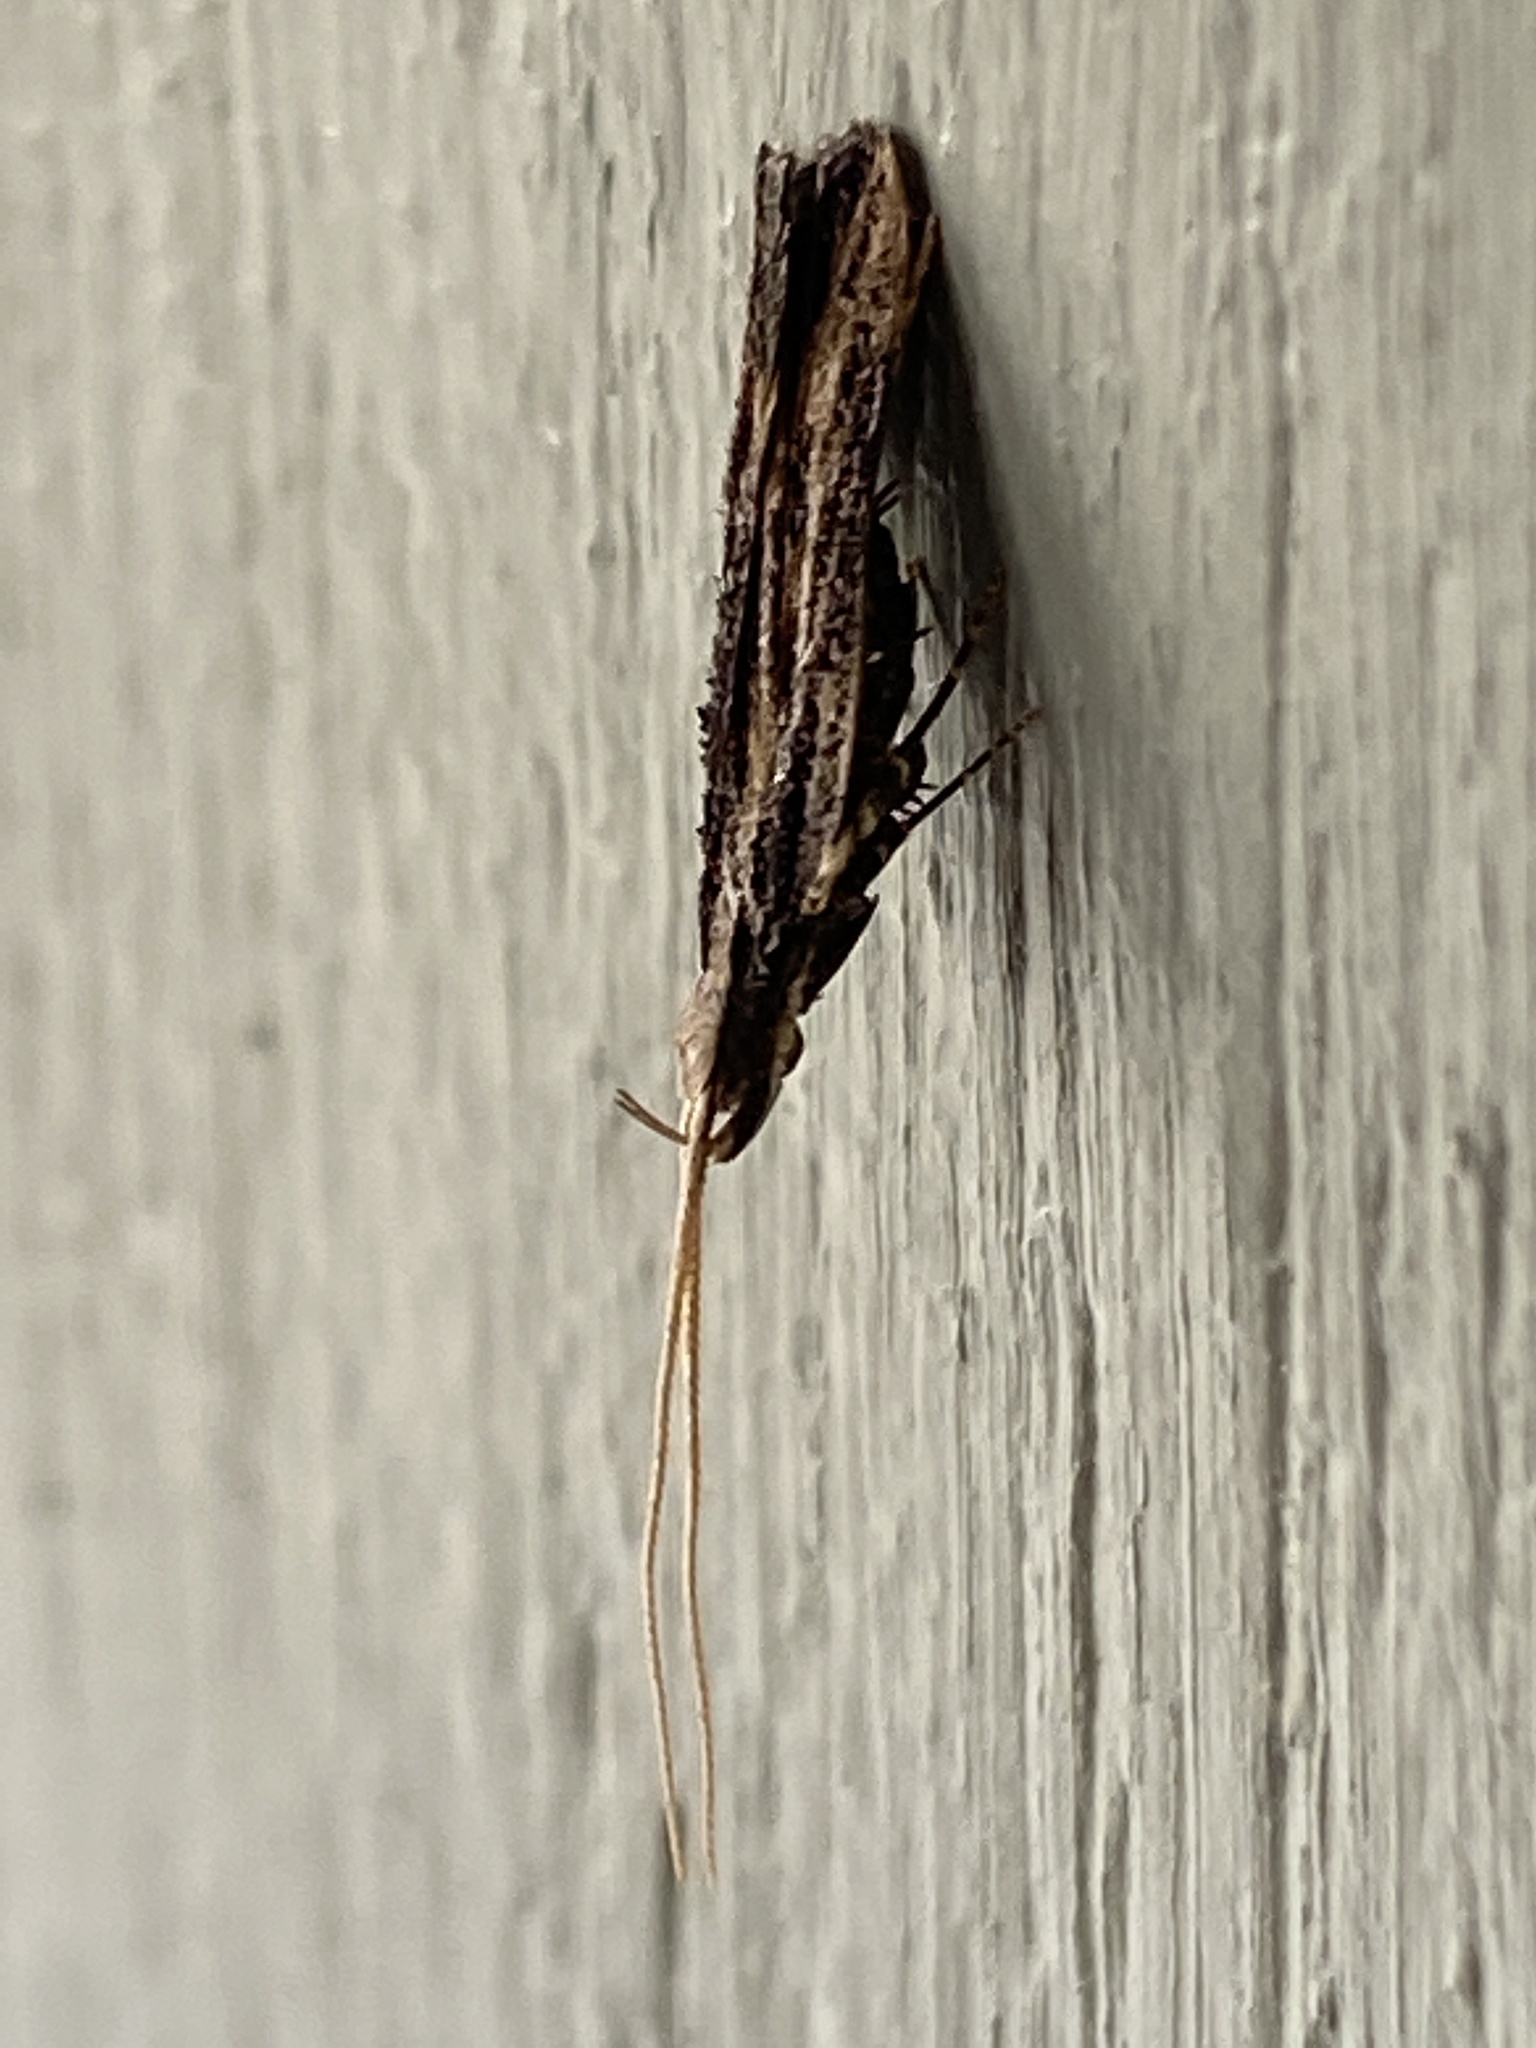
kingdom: Animalia
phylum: Arthropoda
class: Insecta
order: Lepidoptera
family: Lecithoceridae
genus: Sarisophora
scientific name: Sarisophora leucoscia
